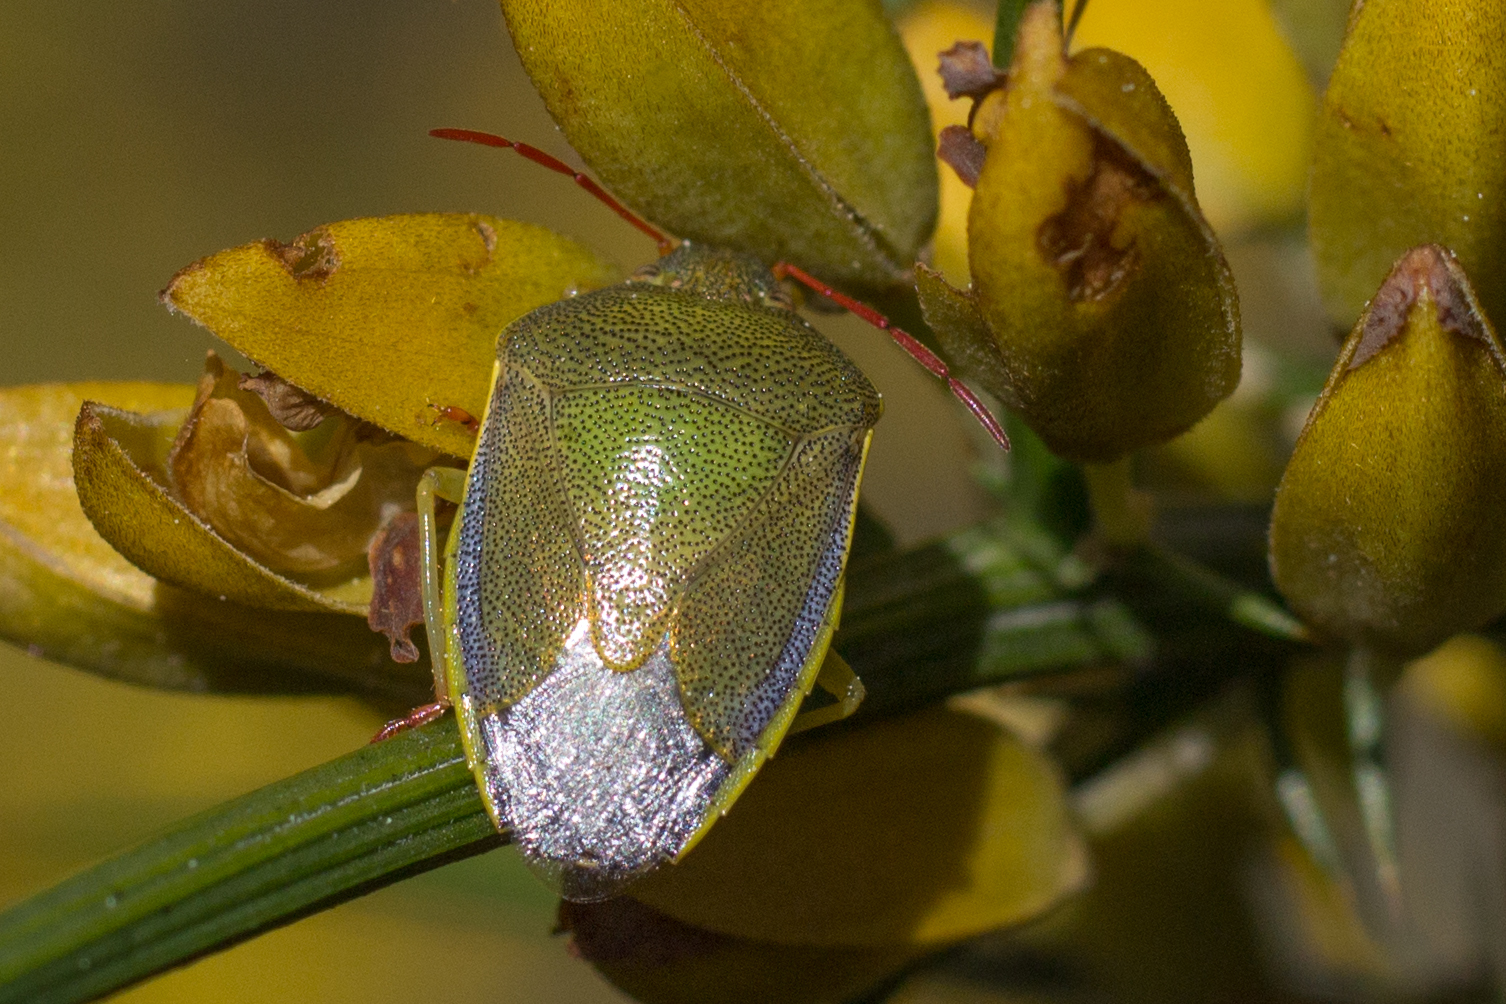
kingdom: Animalia
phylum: Arthropoda
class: Insecta
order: Hemiptera
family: Pentatomidae
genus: Piezodorus
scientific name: Piezodorus lituratus
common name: Stink bug
